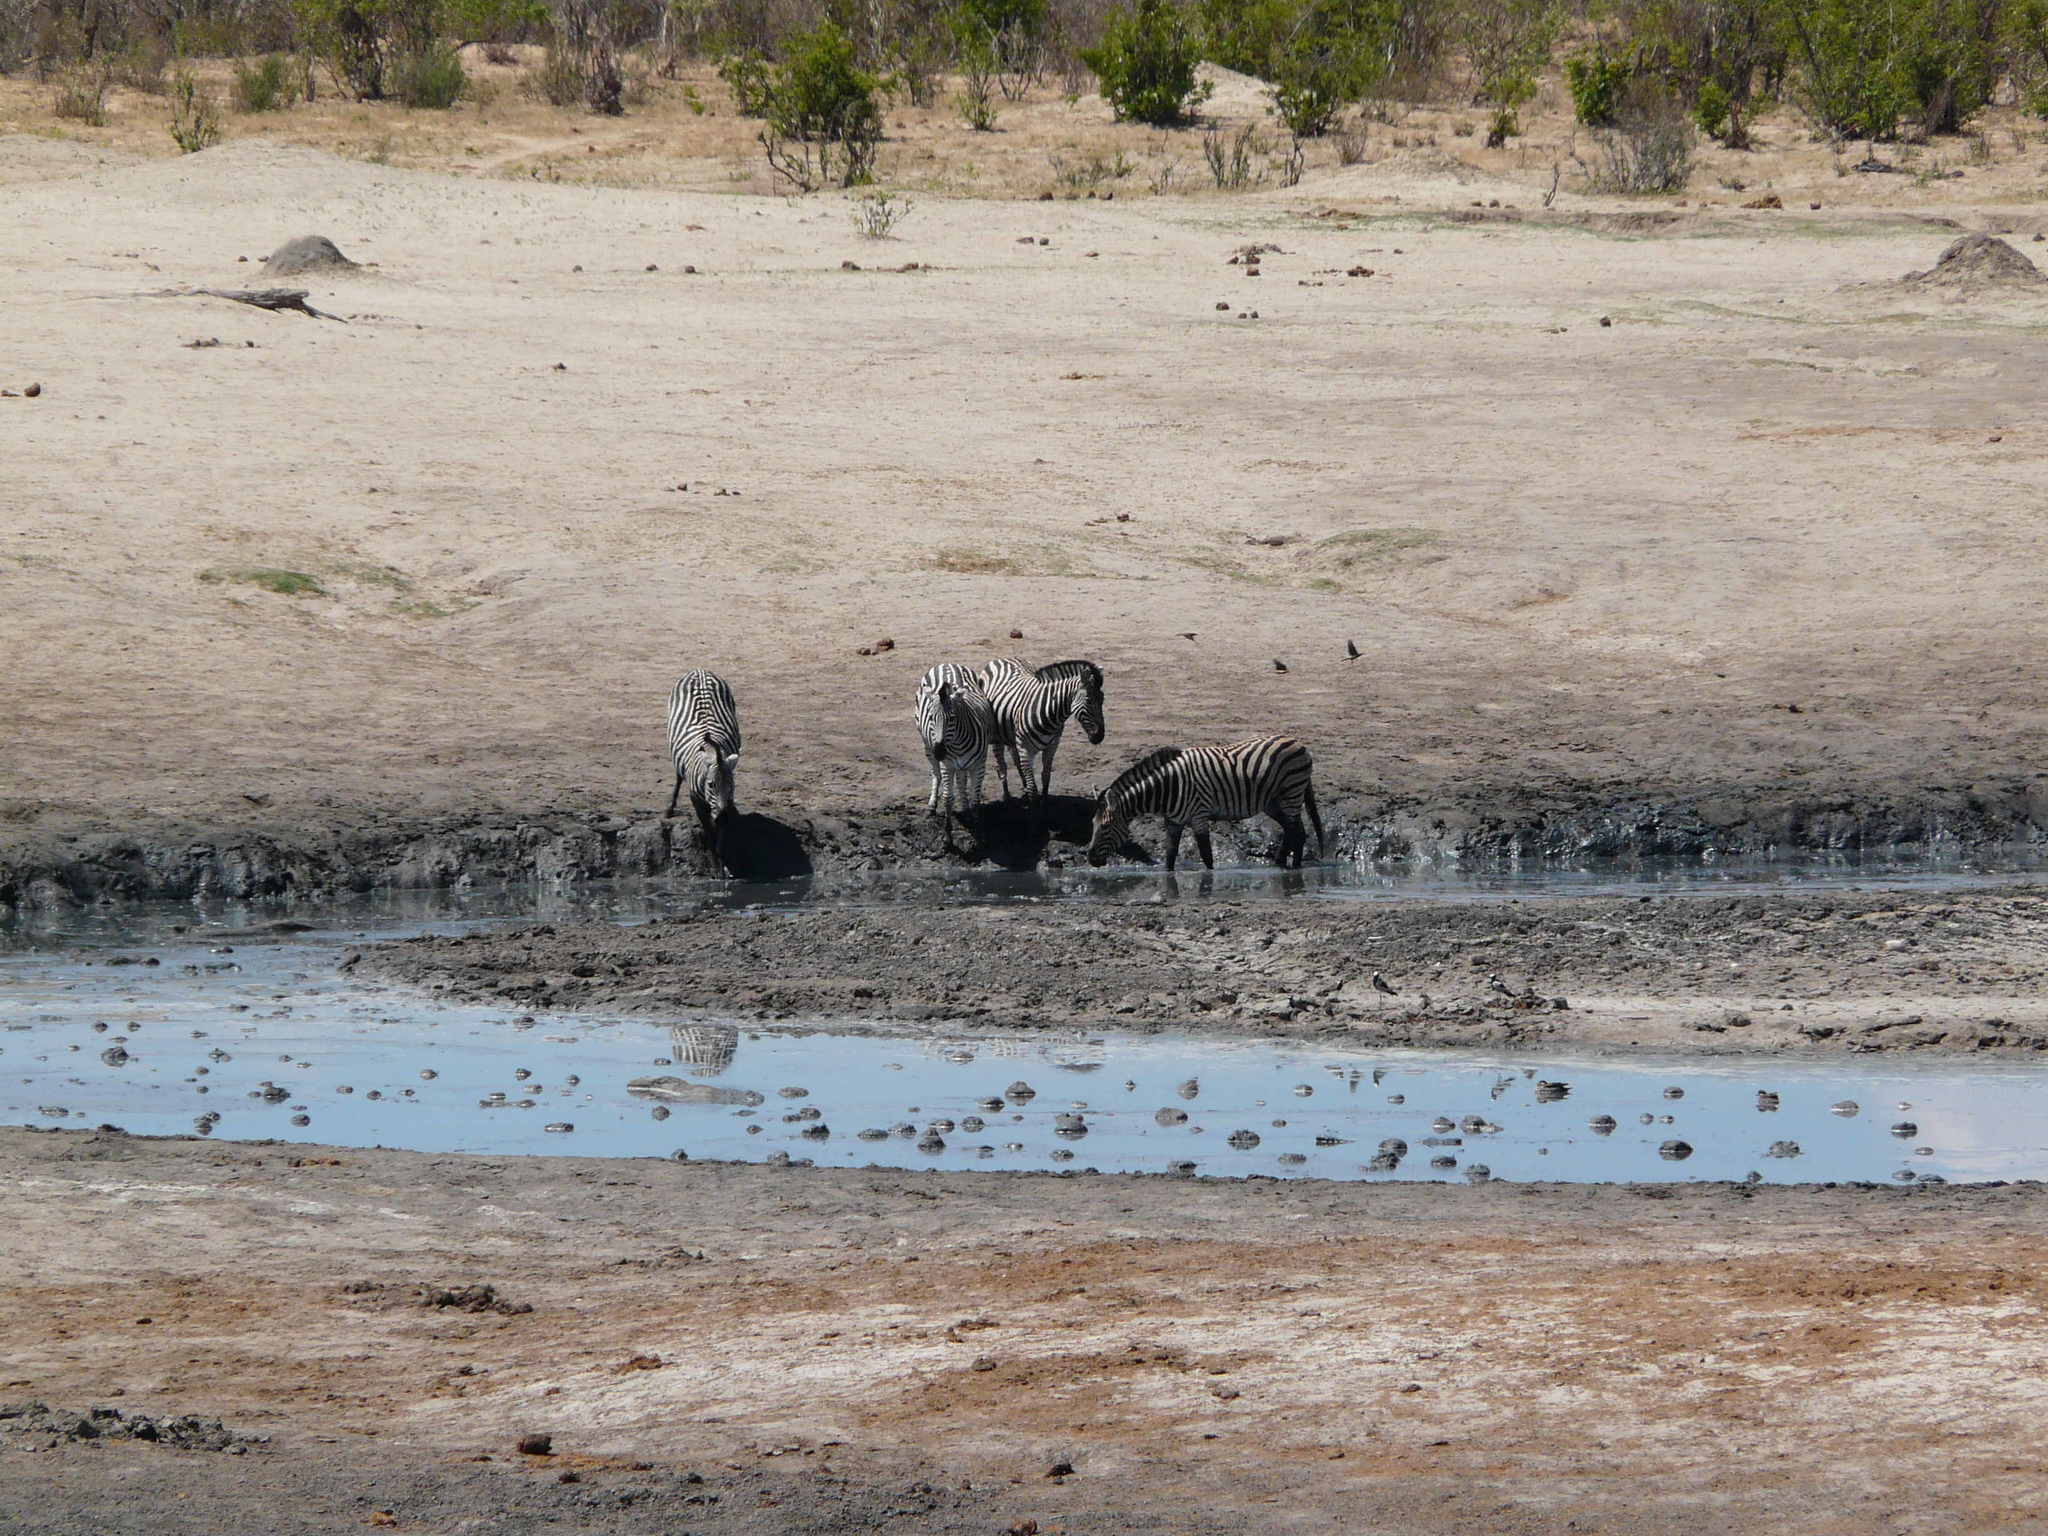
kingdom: Animalia
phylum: Chordata
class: Mammalia
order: Perissodactyla
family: Equidae
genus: Equus
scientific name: Equus quagga
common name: Plains zebra
